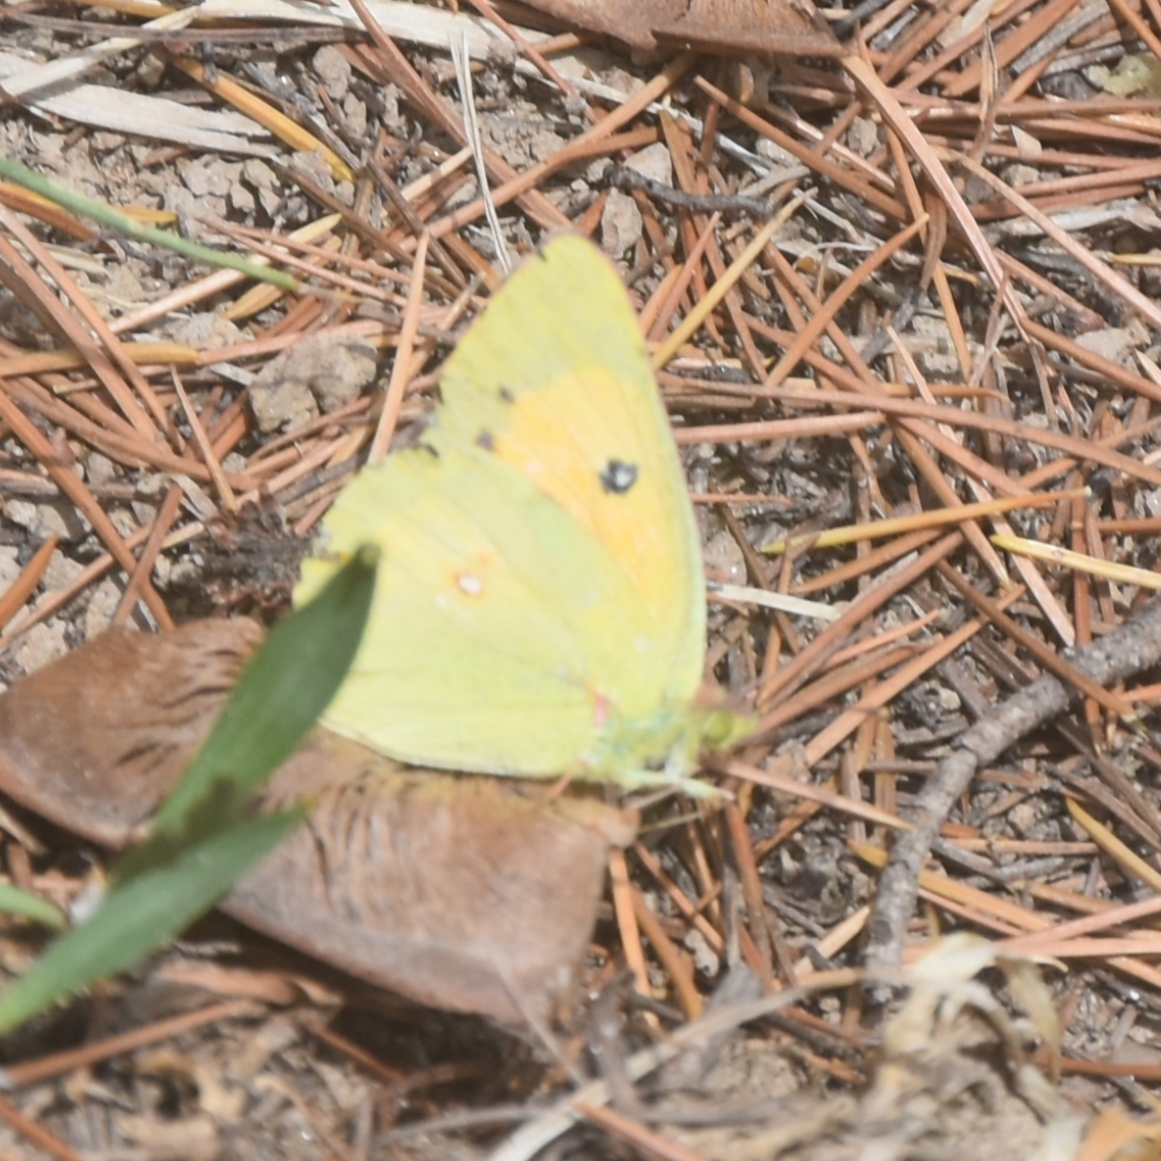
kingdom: Animalia
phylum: Arthropoda
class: Insecta
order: Lepidoptera
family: Pieridae
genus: Colias
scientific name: Colias fieldii
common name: Dark clouded yellow
